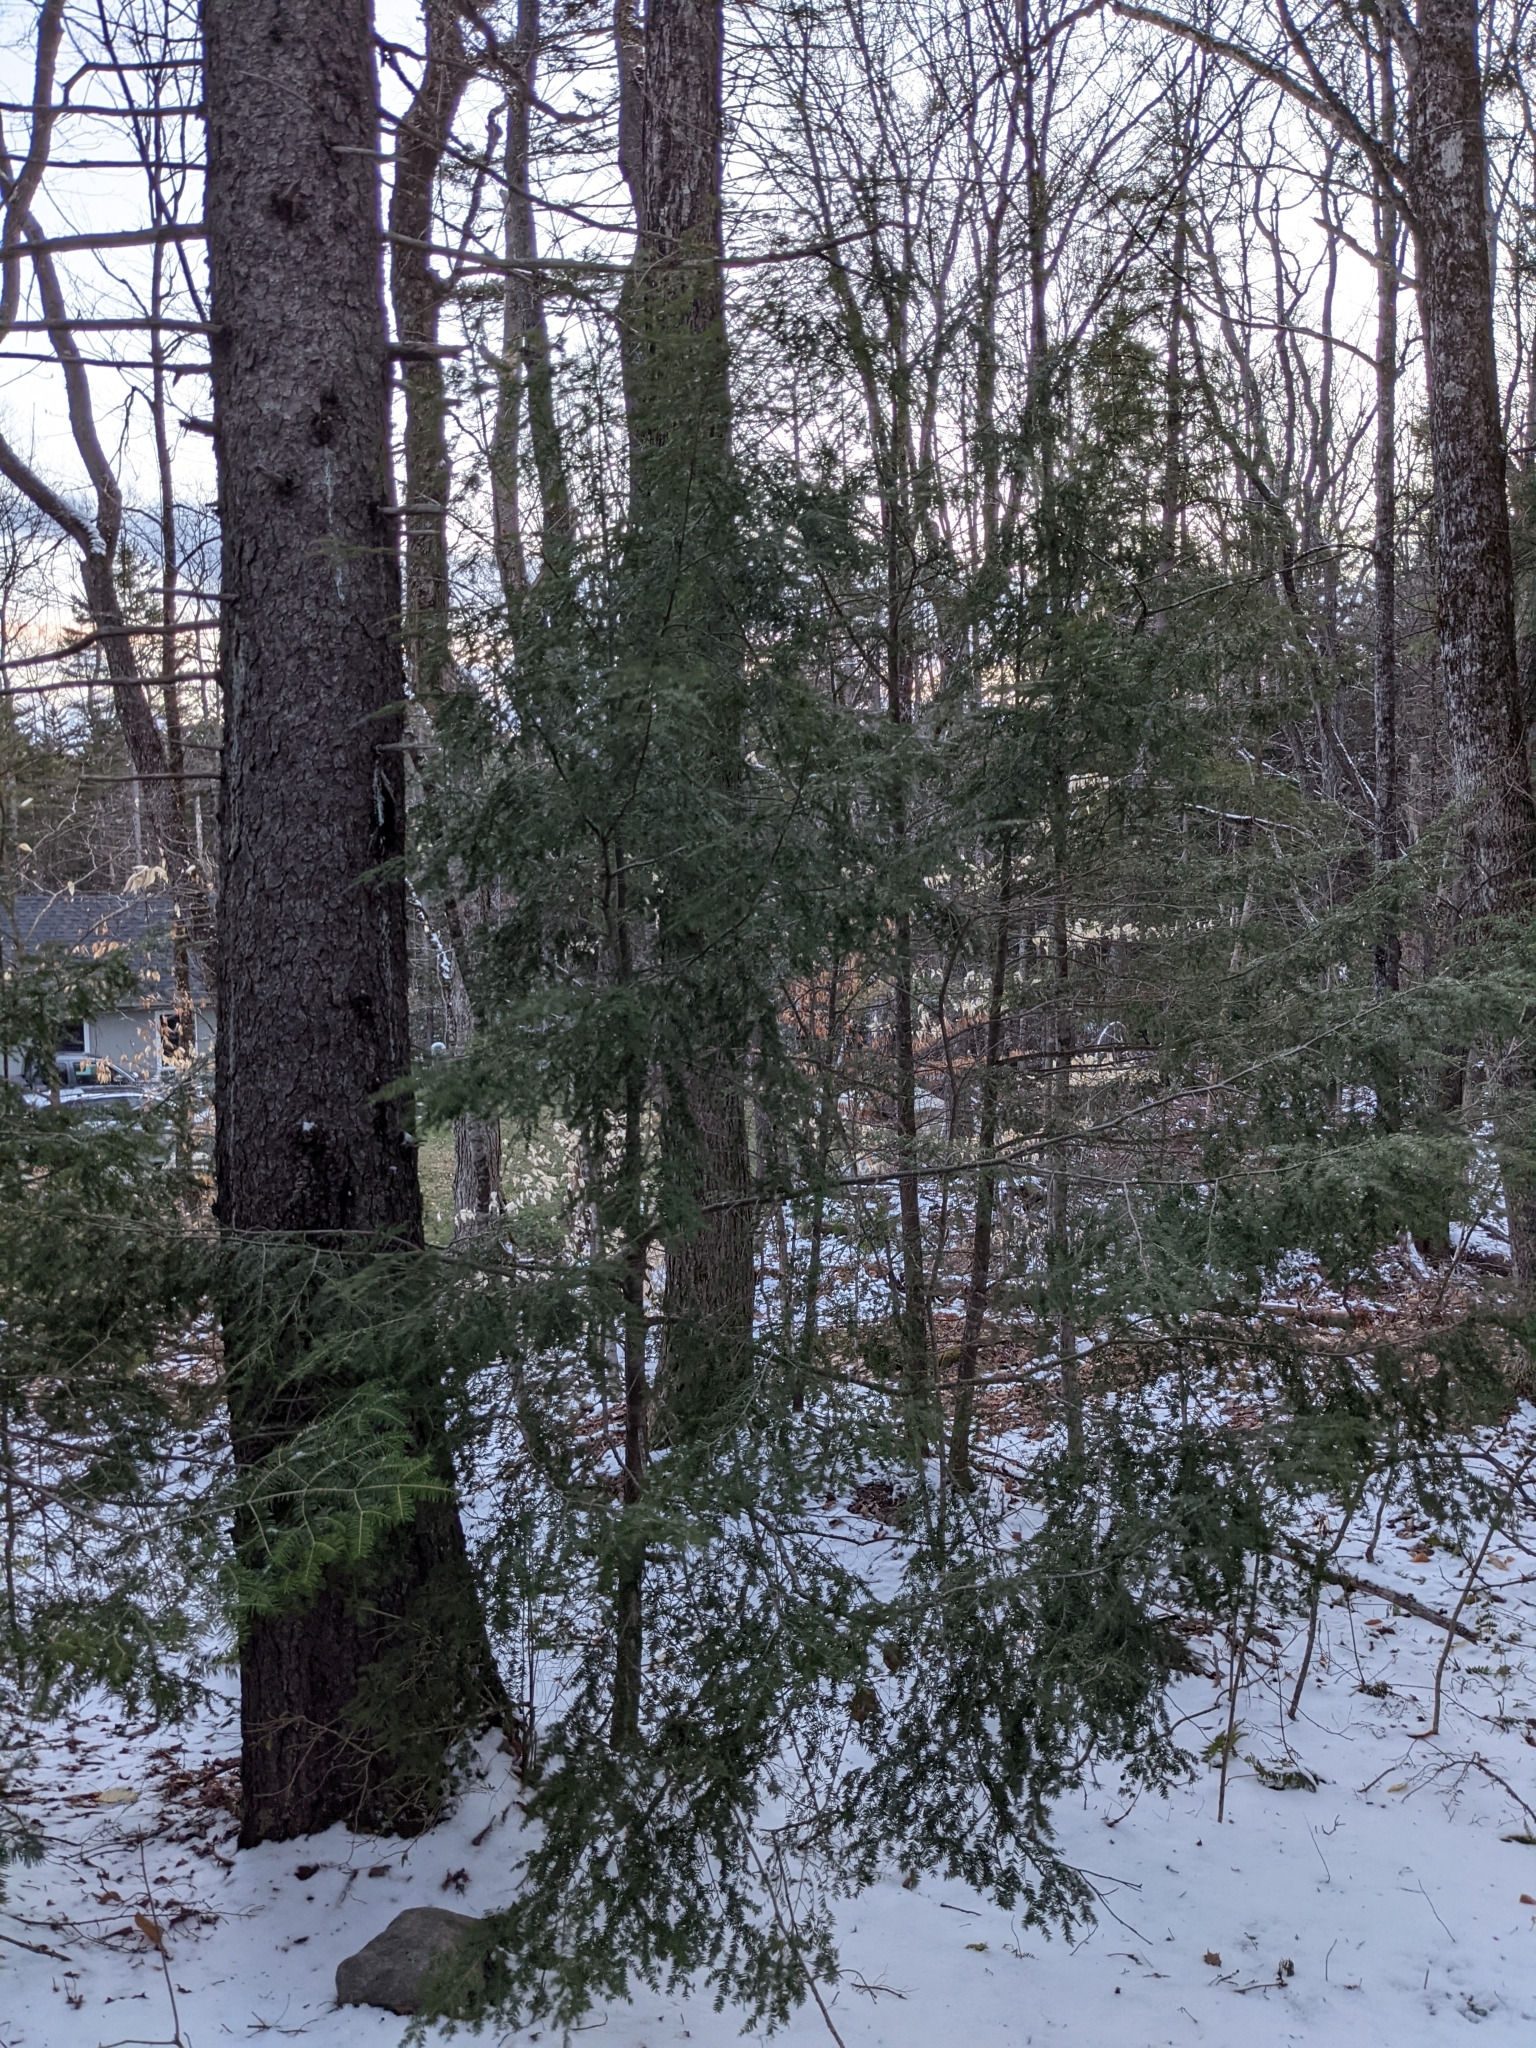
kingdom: Plantae
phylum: Tracheophyta
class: Pinopsida
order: Pinales
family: Pinaceae
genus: Tsuga
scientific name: Tsuga canadensis
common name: Eastern hemlock
